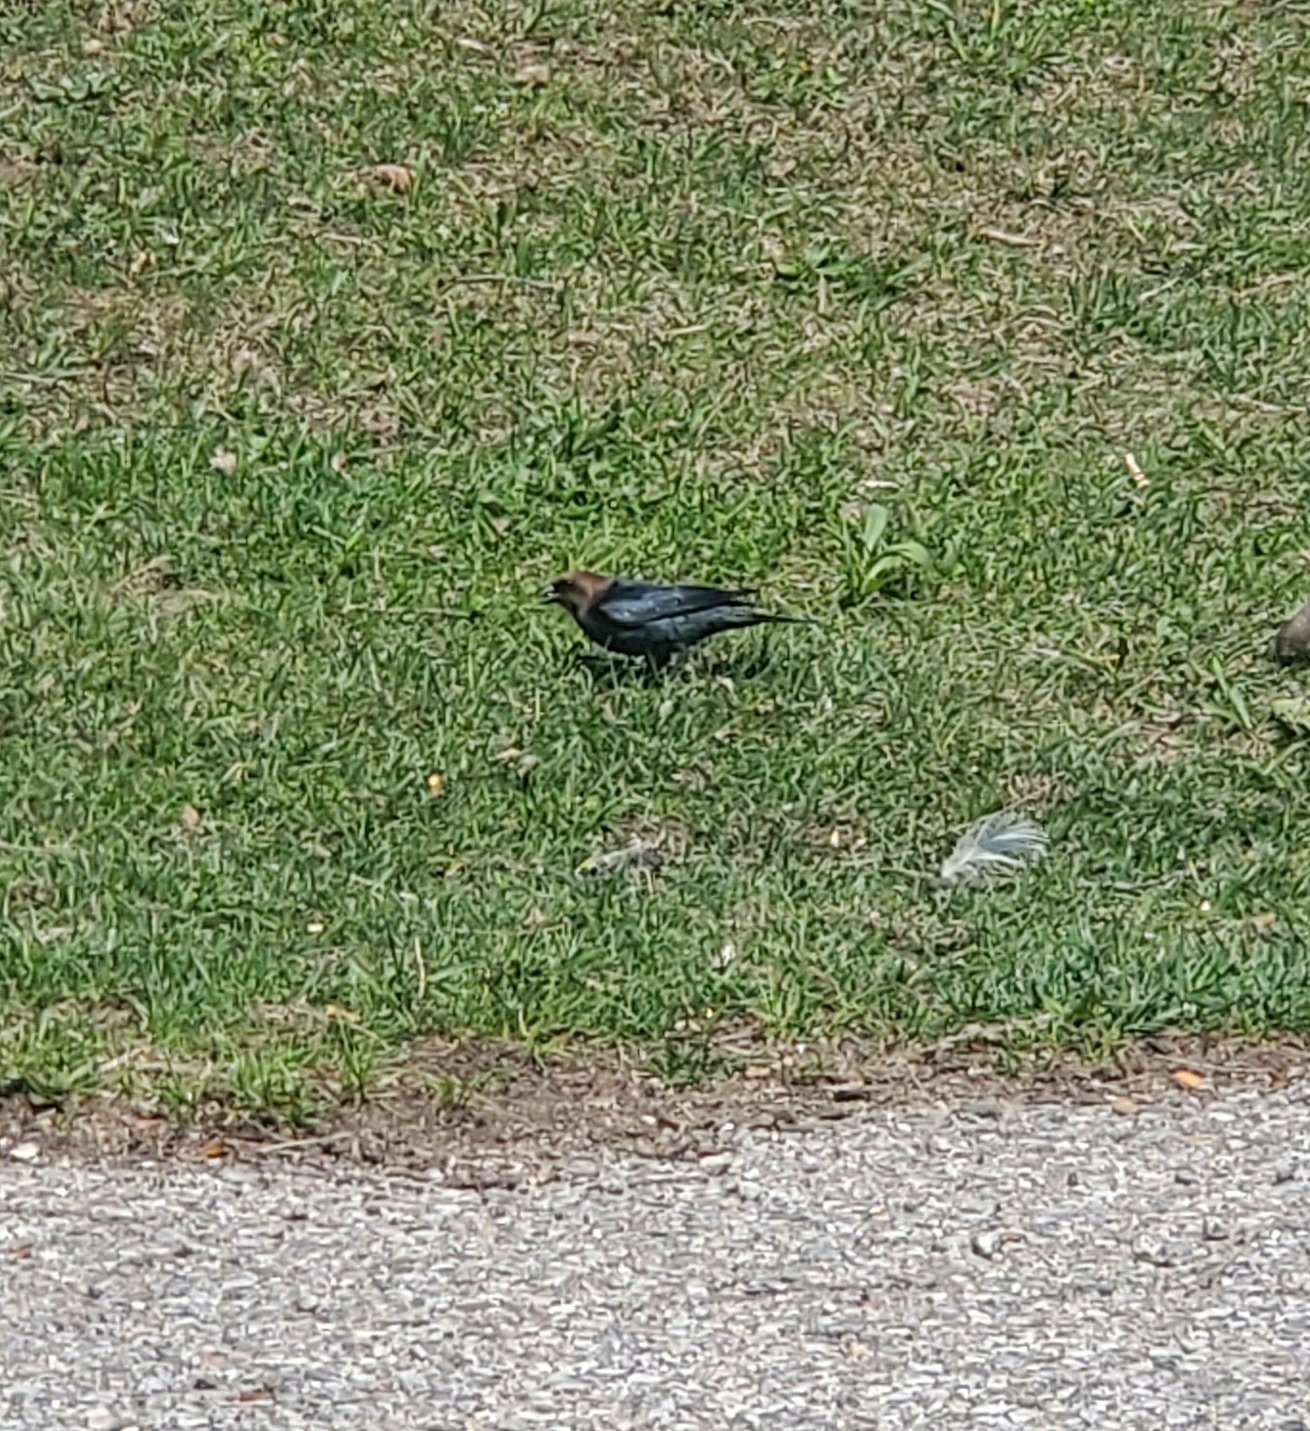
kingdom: Animalia
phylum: Chordata
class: Aves
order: Passeriformes
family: Icteridae
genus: Molothrus
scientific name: Molothrus ater
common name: Brown-headed cowbird
